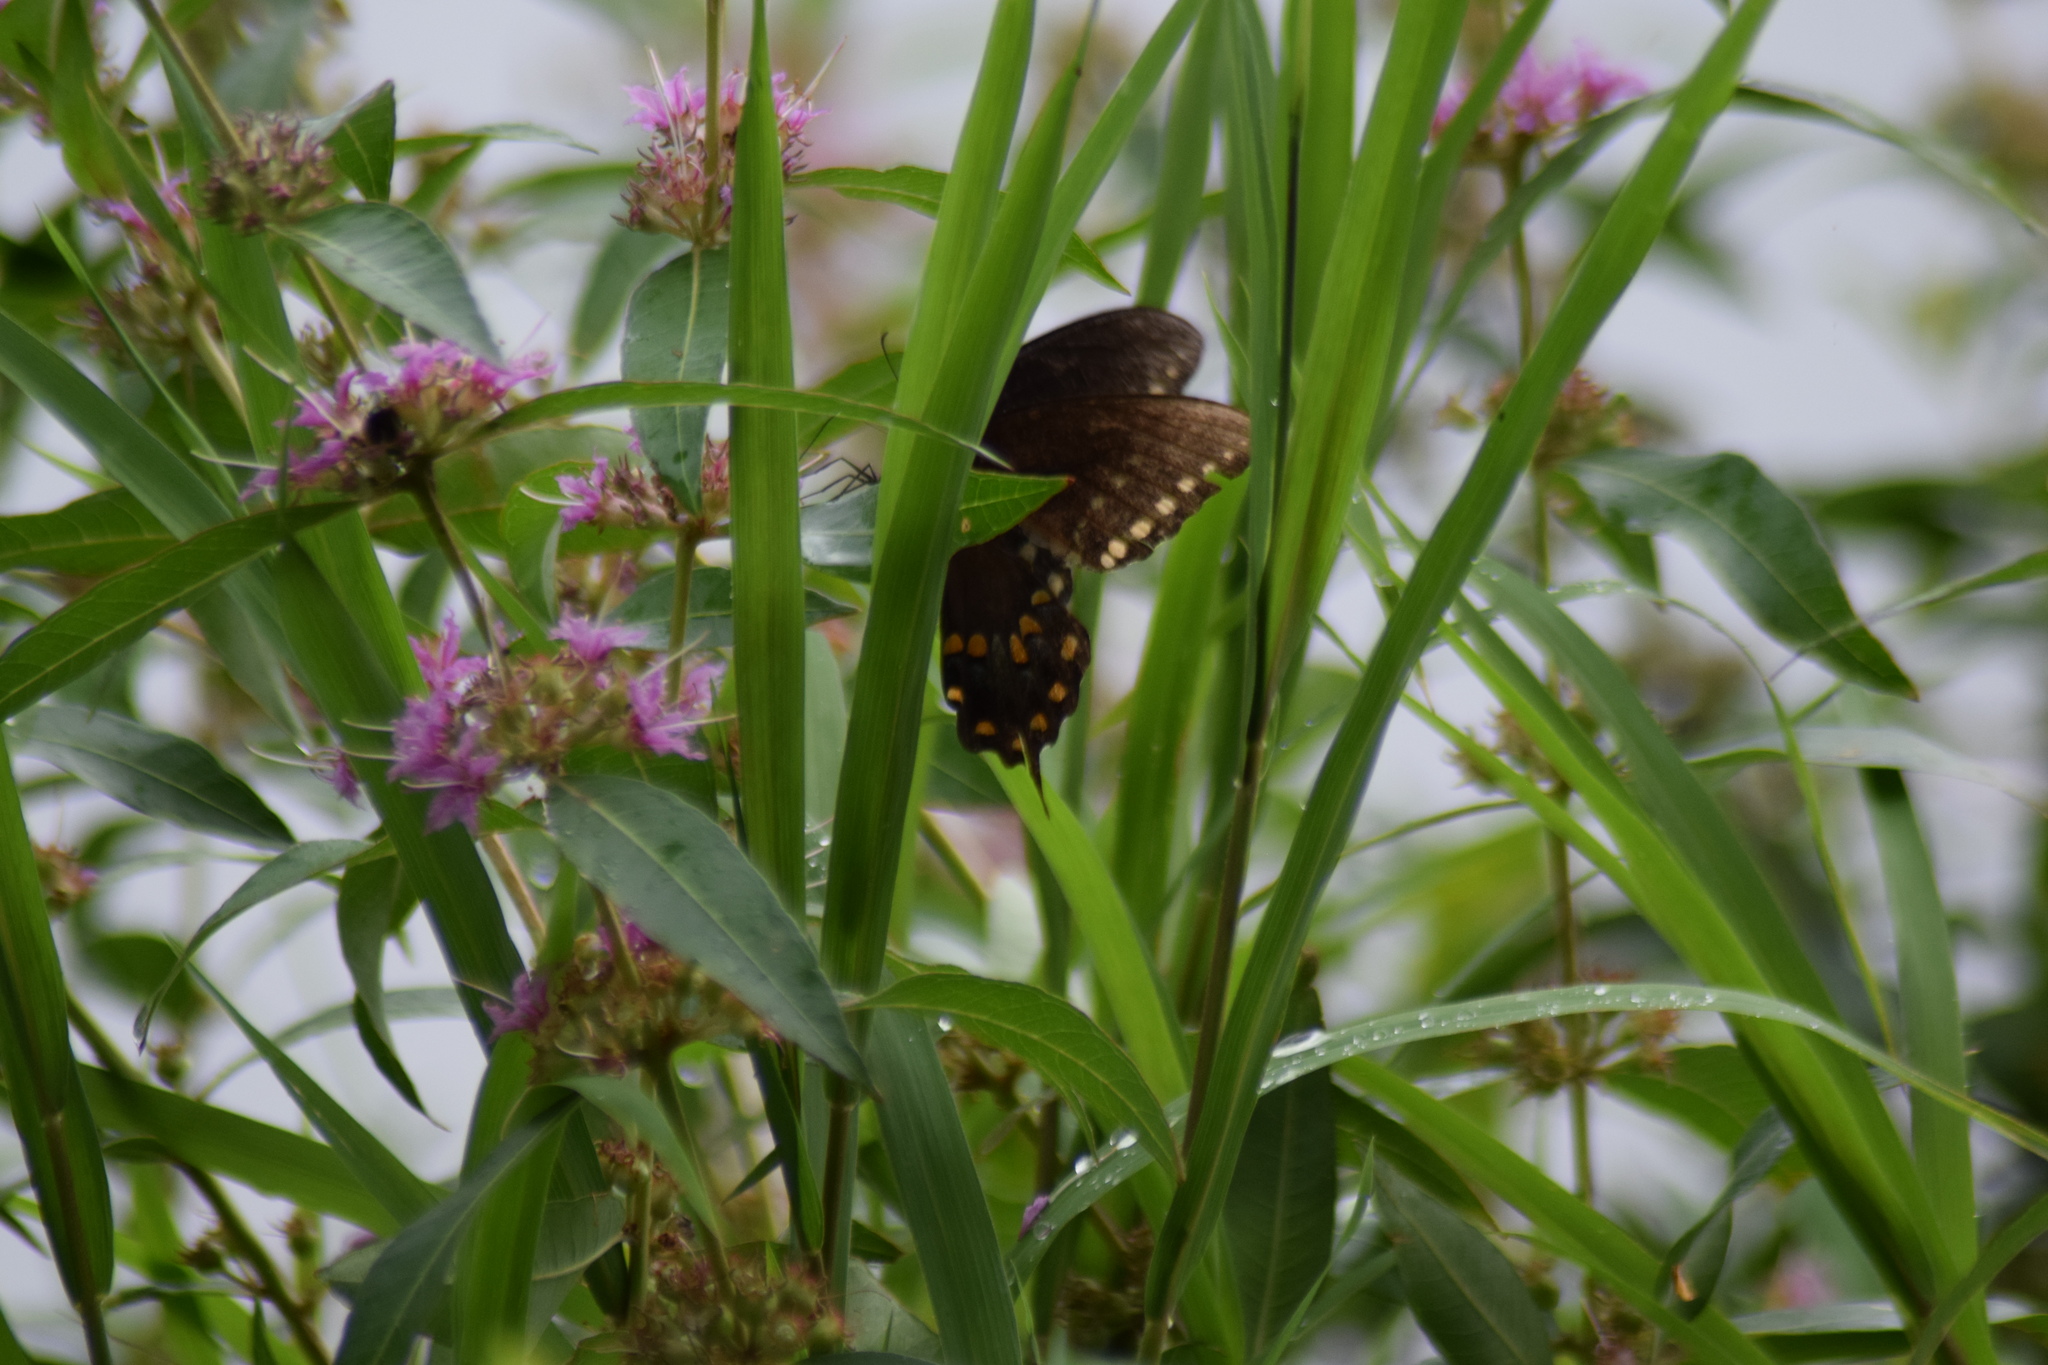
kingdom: Animalia
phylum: Arthropoda
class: Insecta
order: Lepidoptera
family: Papilionidae
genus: Papilio
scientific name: Papilio troilus
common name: Spicebush swallowtail
